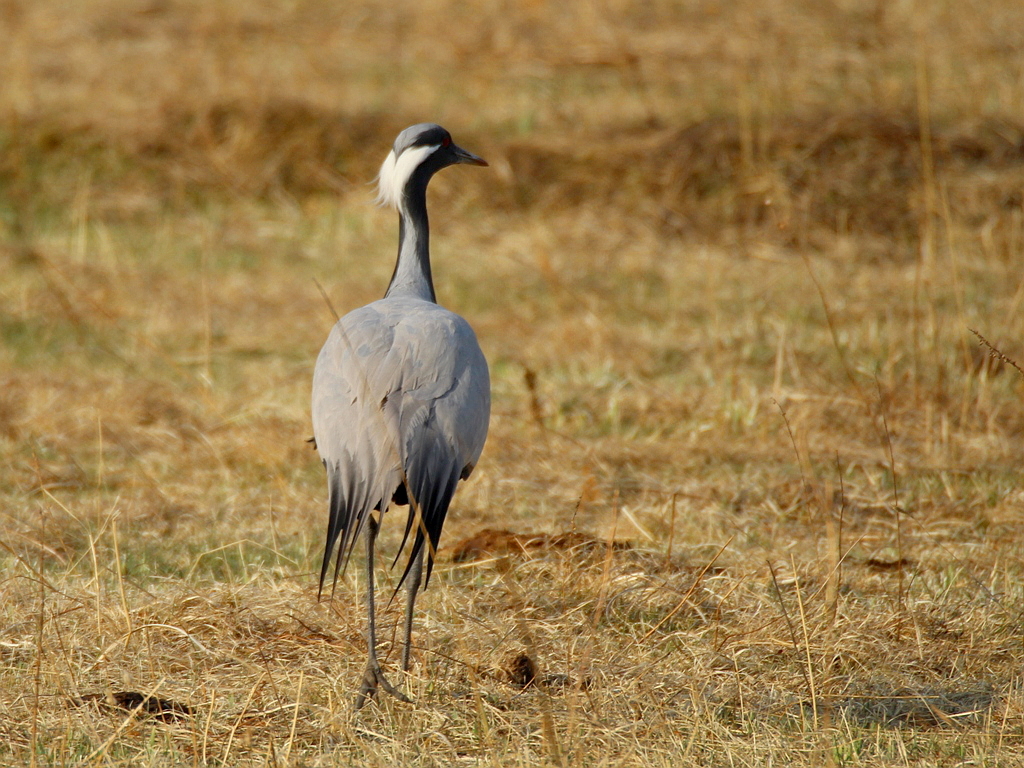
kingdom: Animalia
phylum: Chordata
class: Aves
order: Gruiformes
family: Gruidae
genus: Anthropoides
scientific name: Anthropoides virgo
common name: Demoiselle crane
